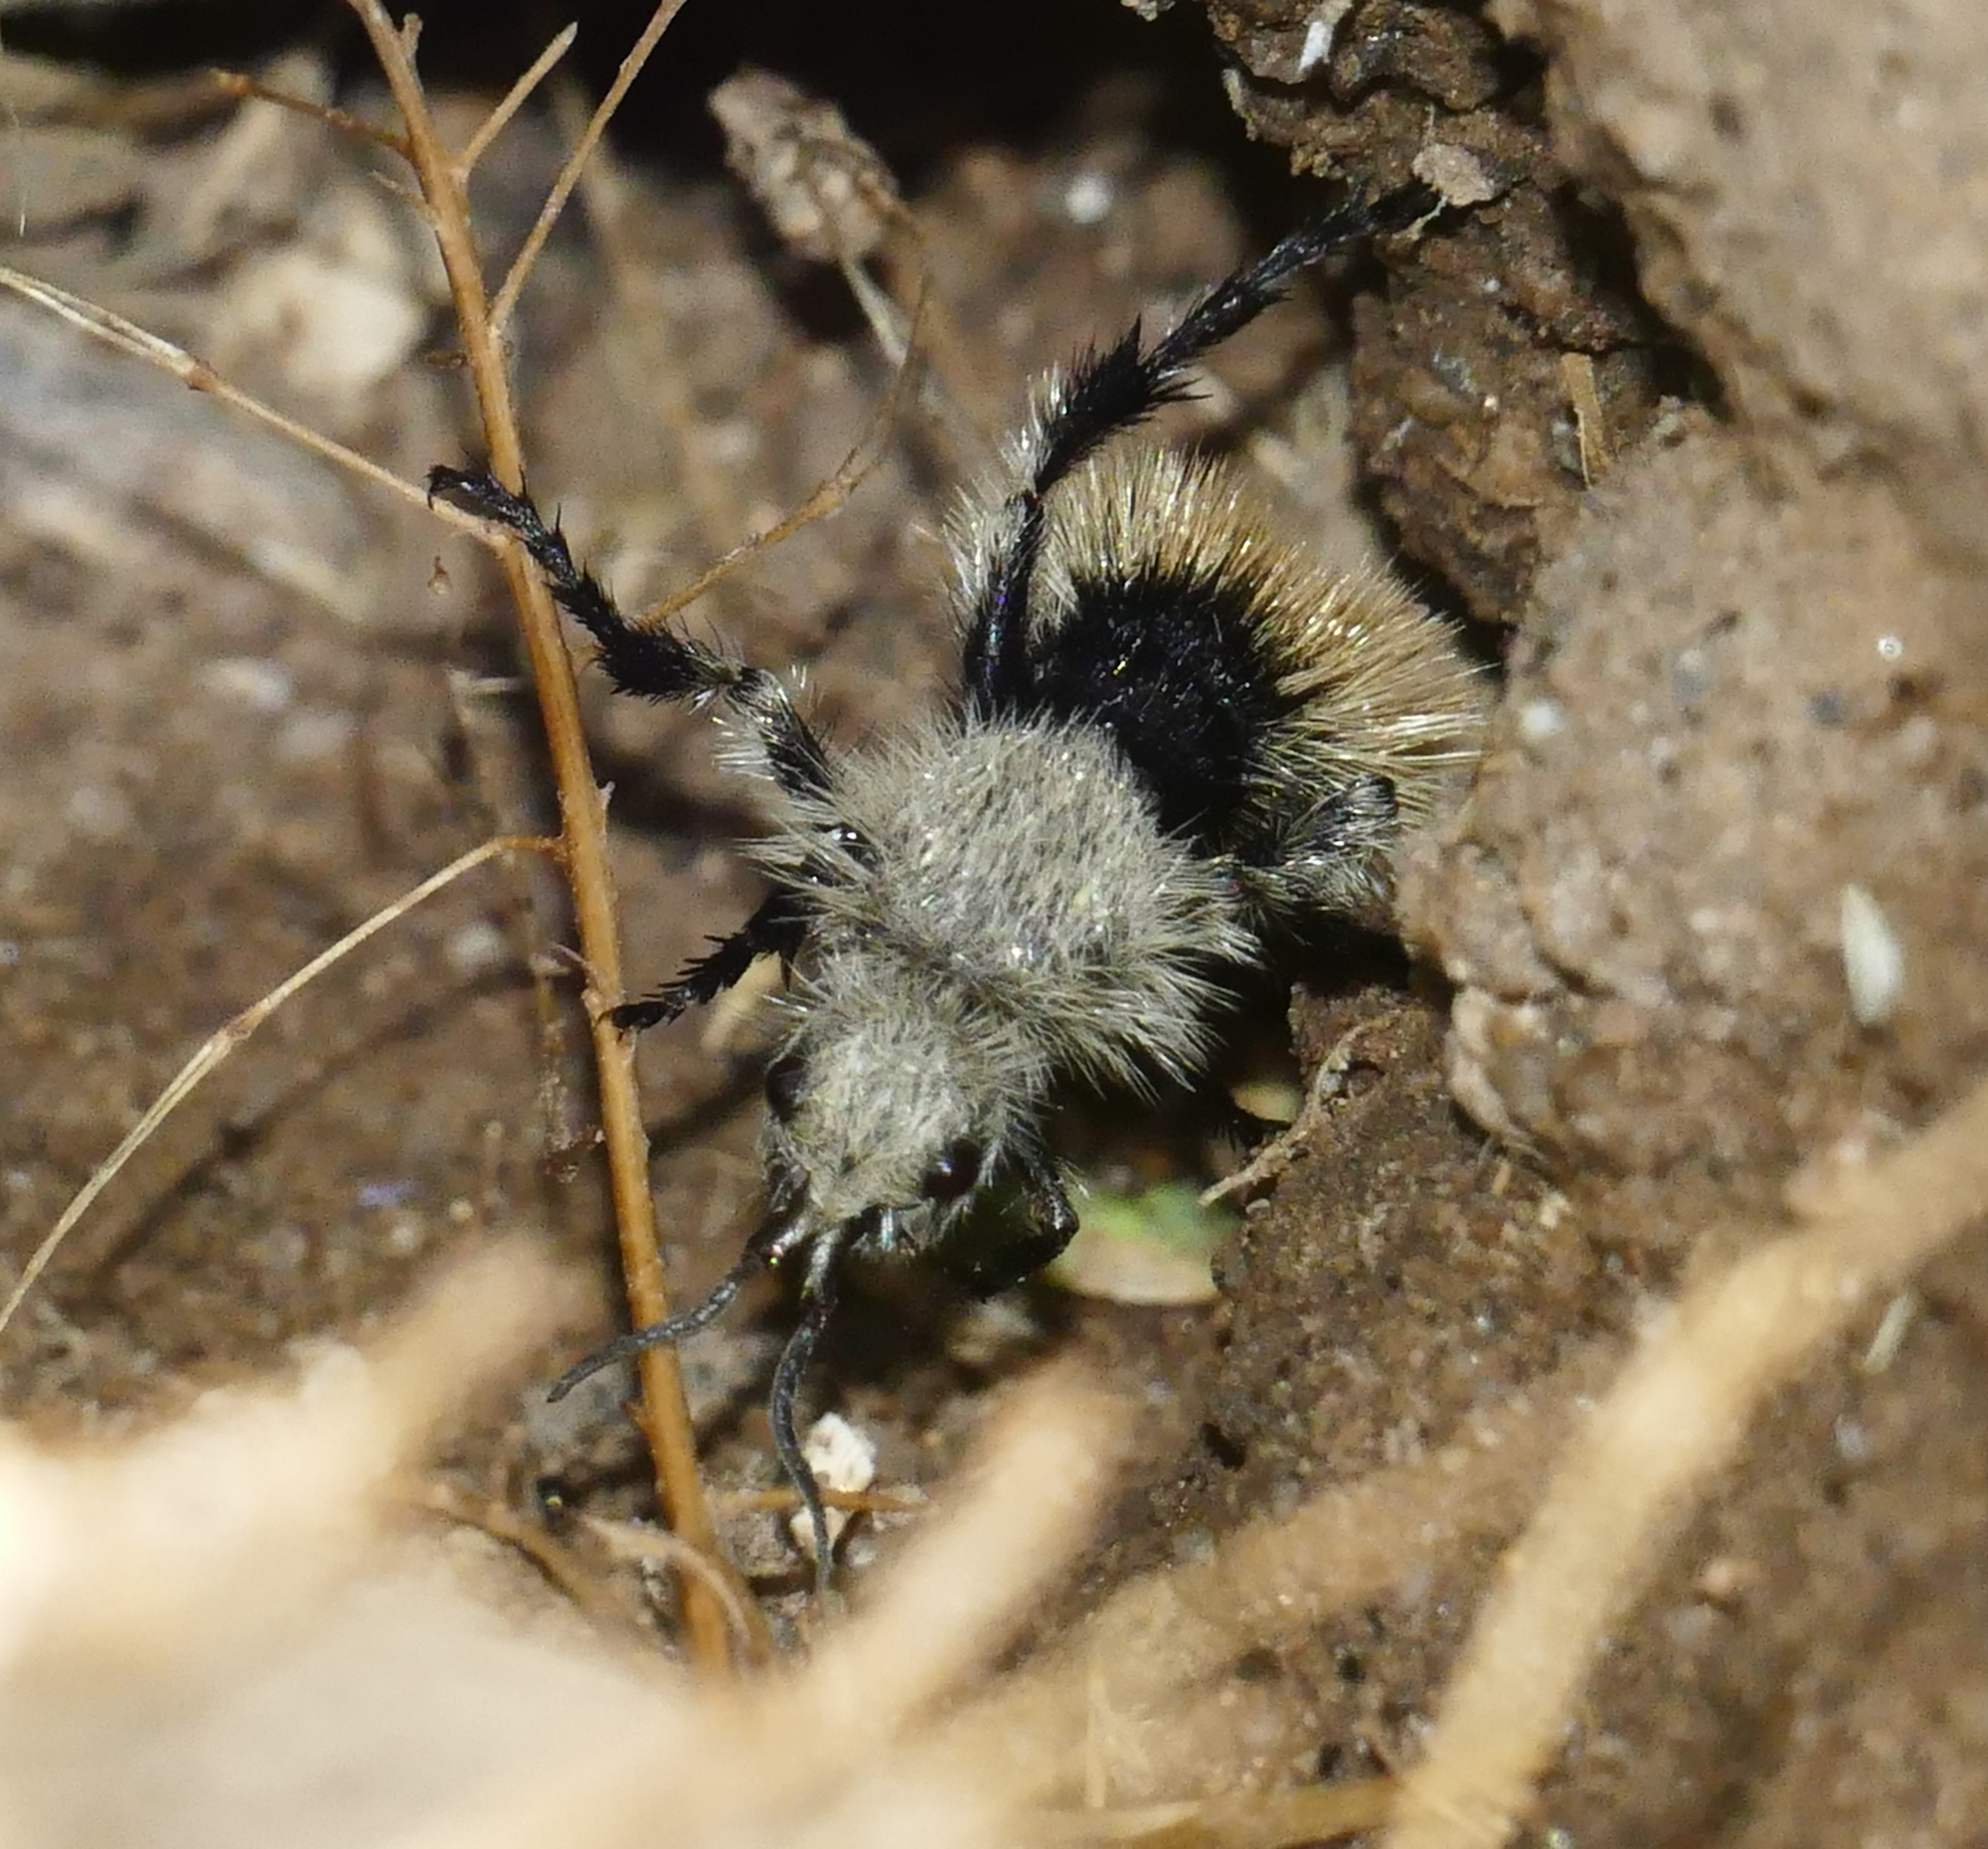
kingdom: Animalia
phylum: Arthropoda
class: Insecta
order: Hymenoptera
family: Mutillidae
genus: Dasymutilla
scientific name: Dasymutilla
